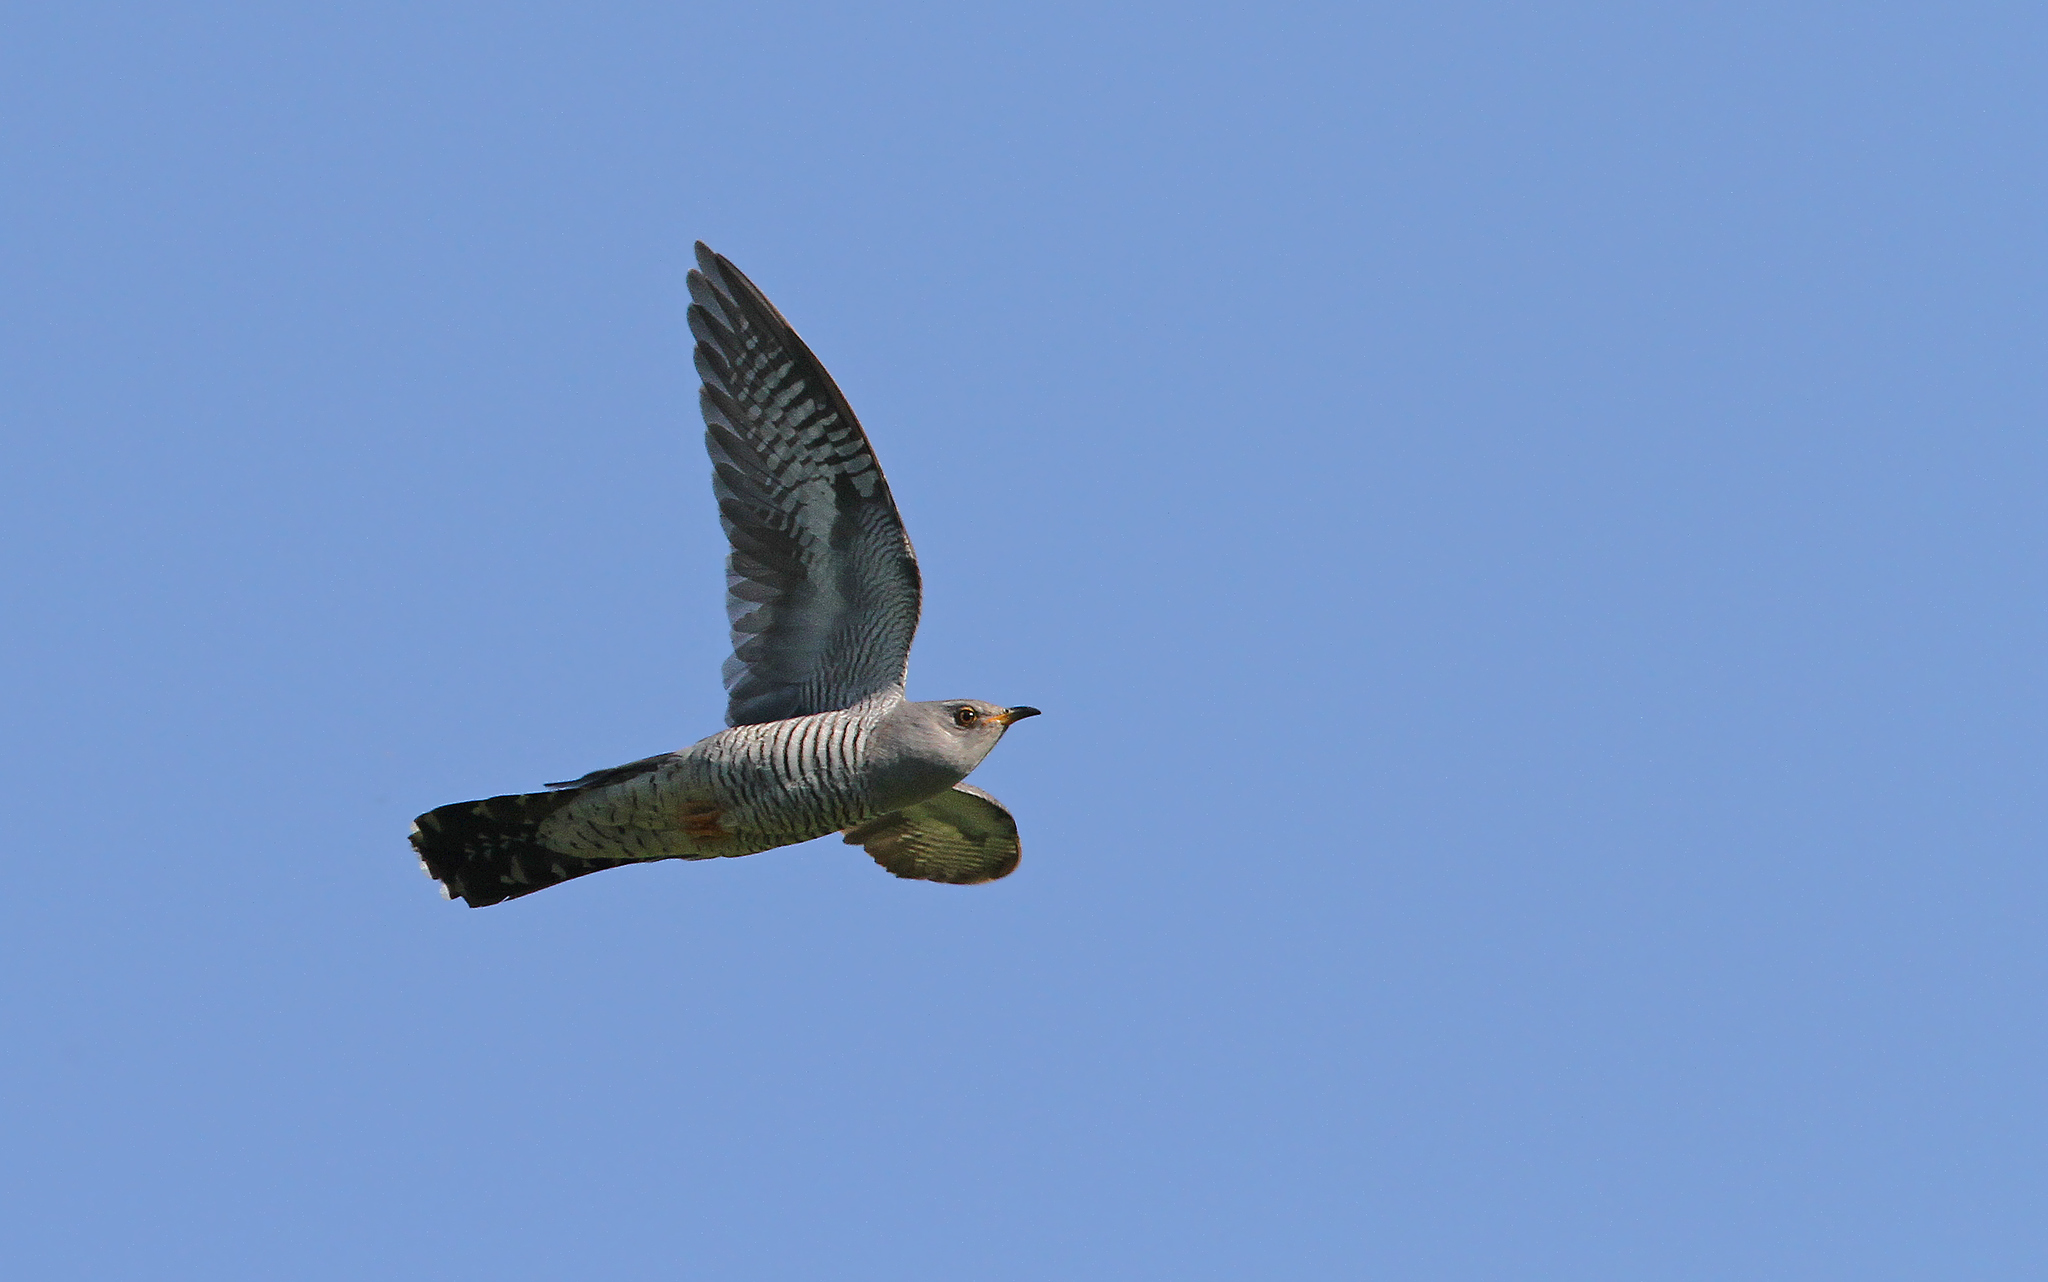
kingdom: Animalia
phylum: Chordata
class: Aves
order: Cuculiformes
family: Cuculidae
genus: Cuculus
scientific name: Cuculus canorus
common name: Common cuckoo
